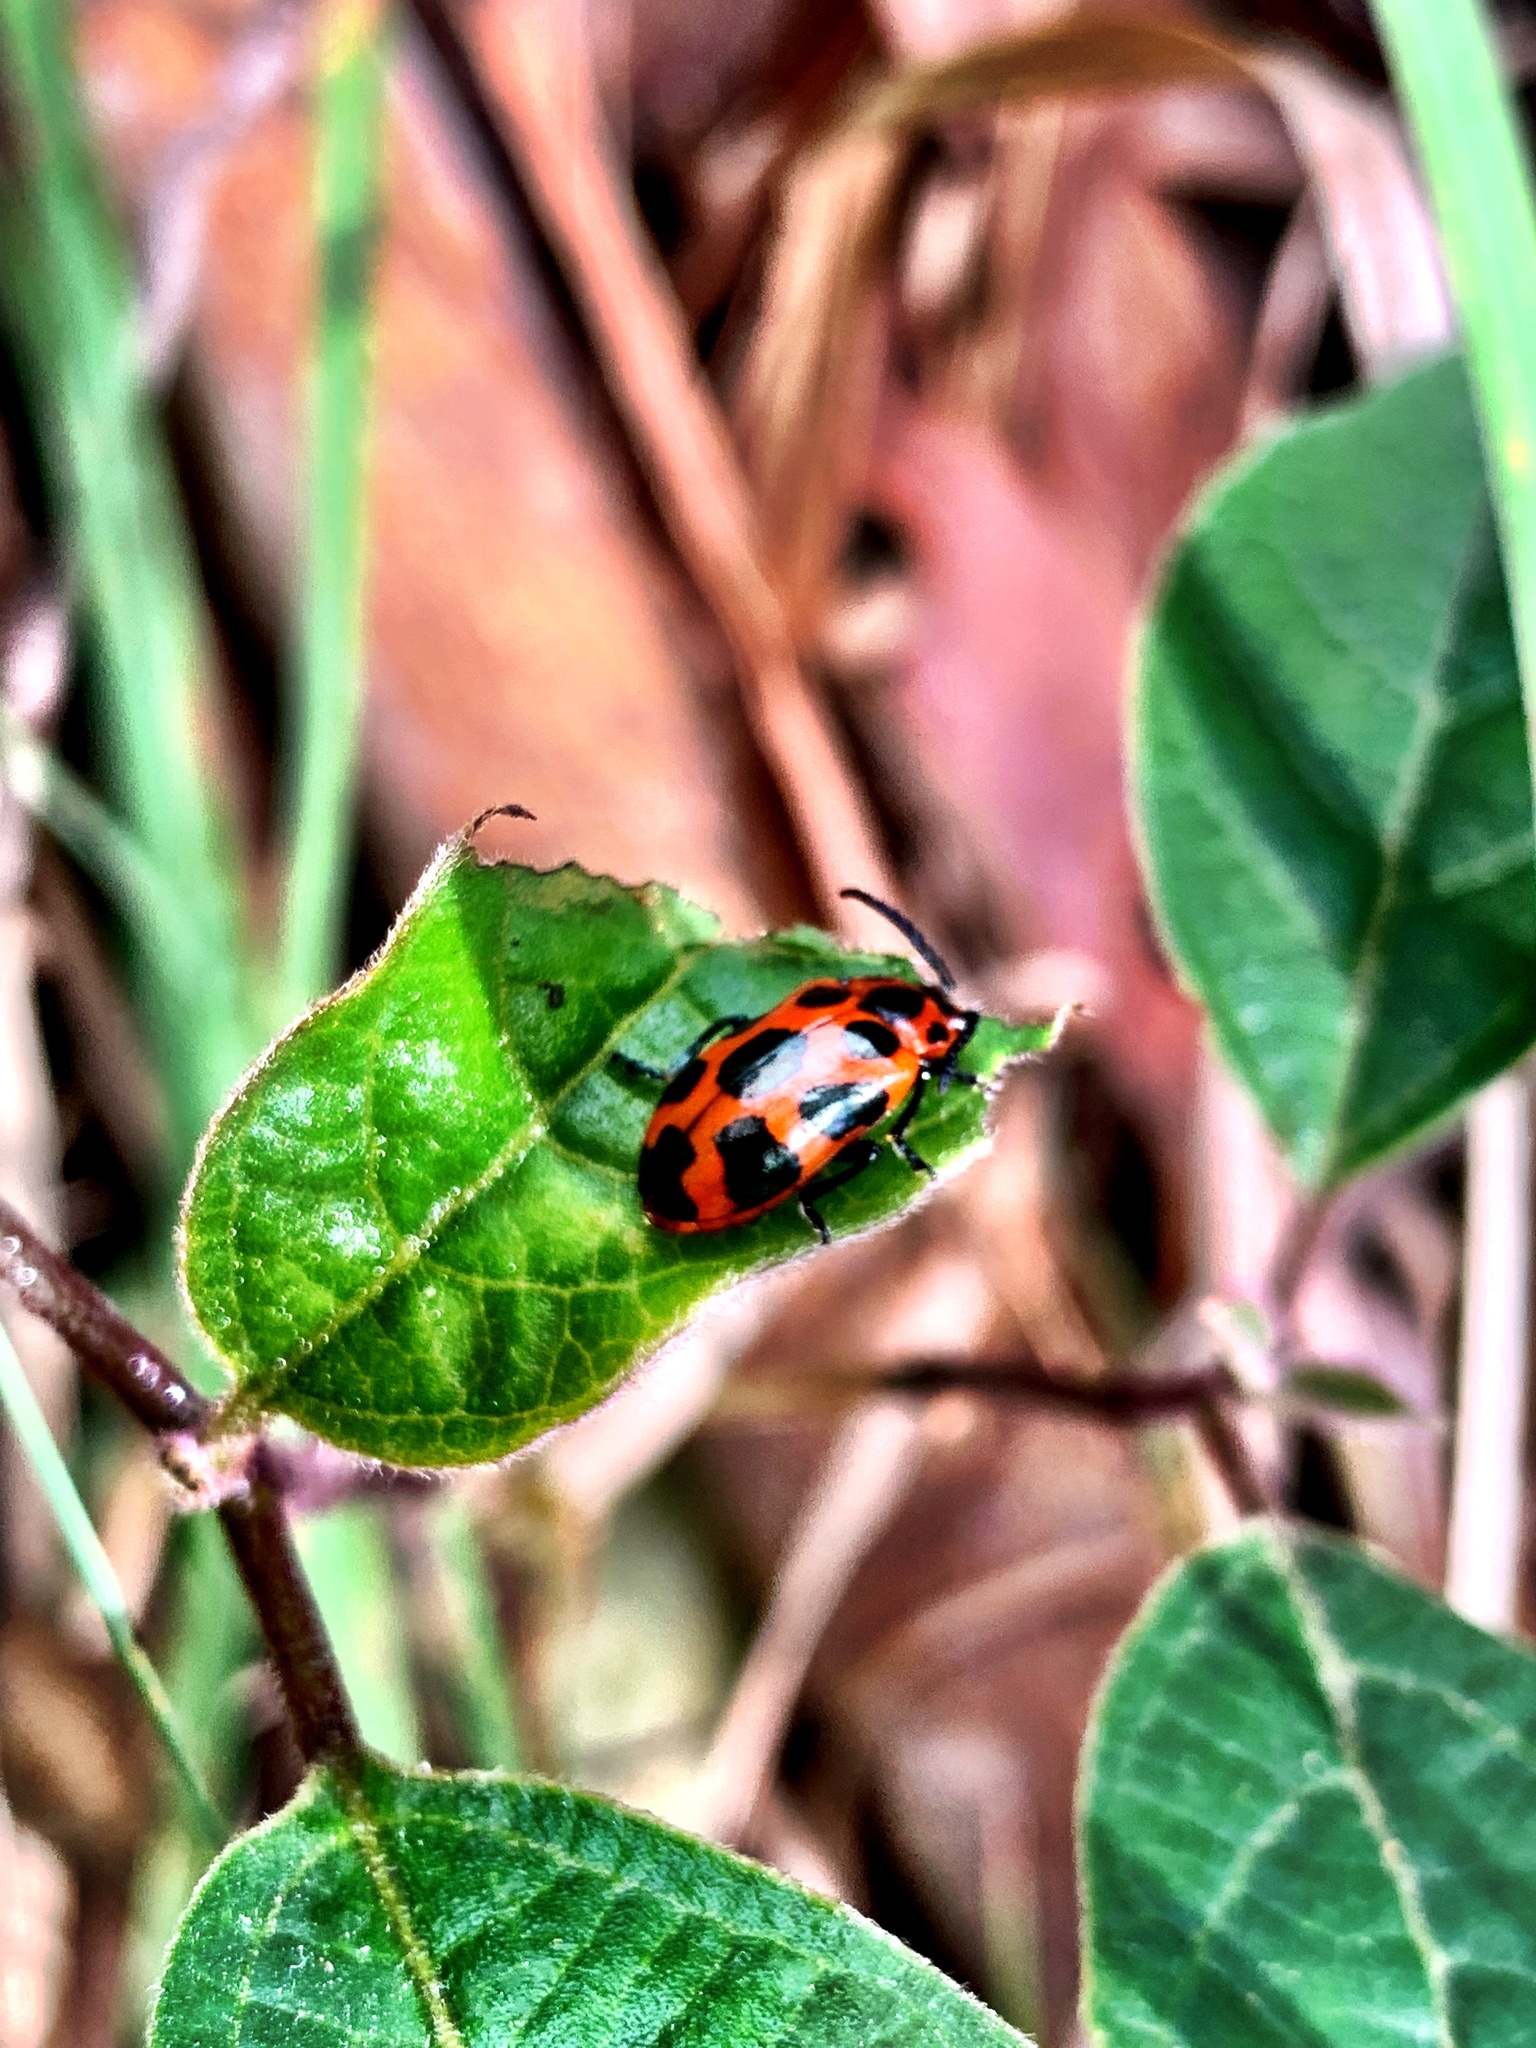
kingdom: Animalia
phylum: Arthropoda
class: Insecta
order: Coleoptera
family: Chrysomelidae
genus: Phyllocharis
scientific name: Phyllocharis
